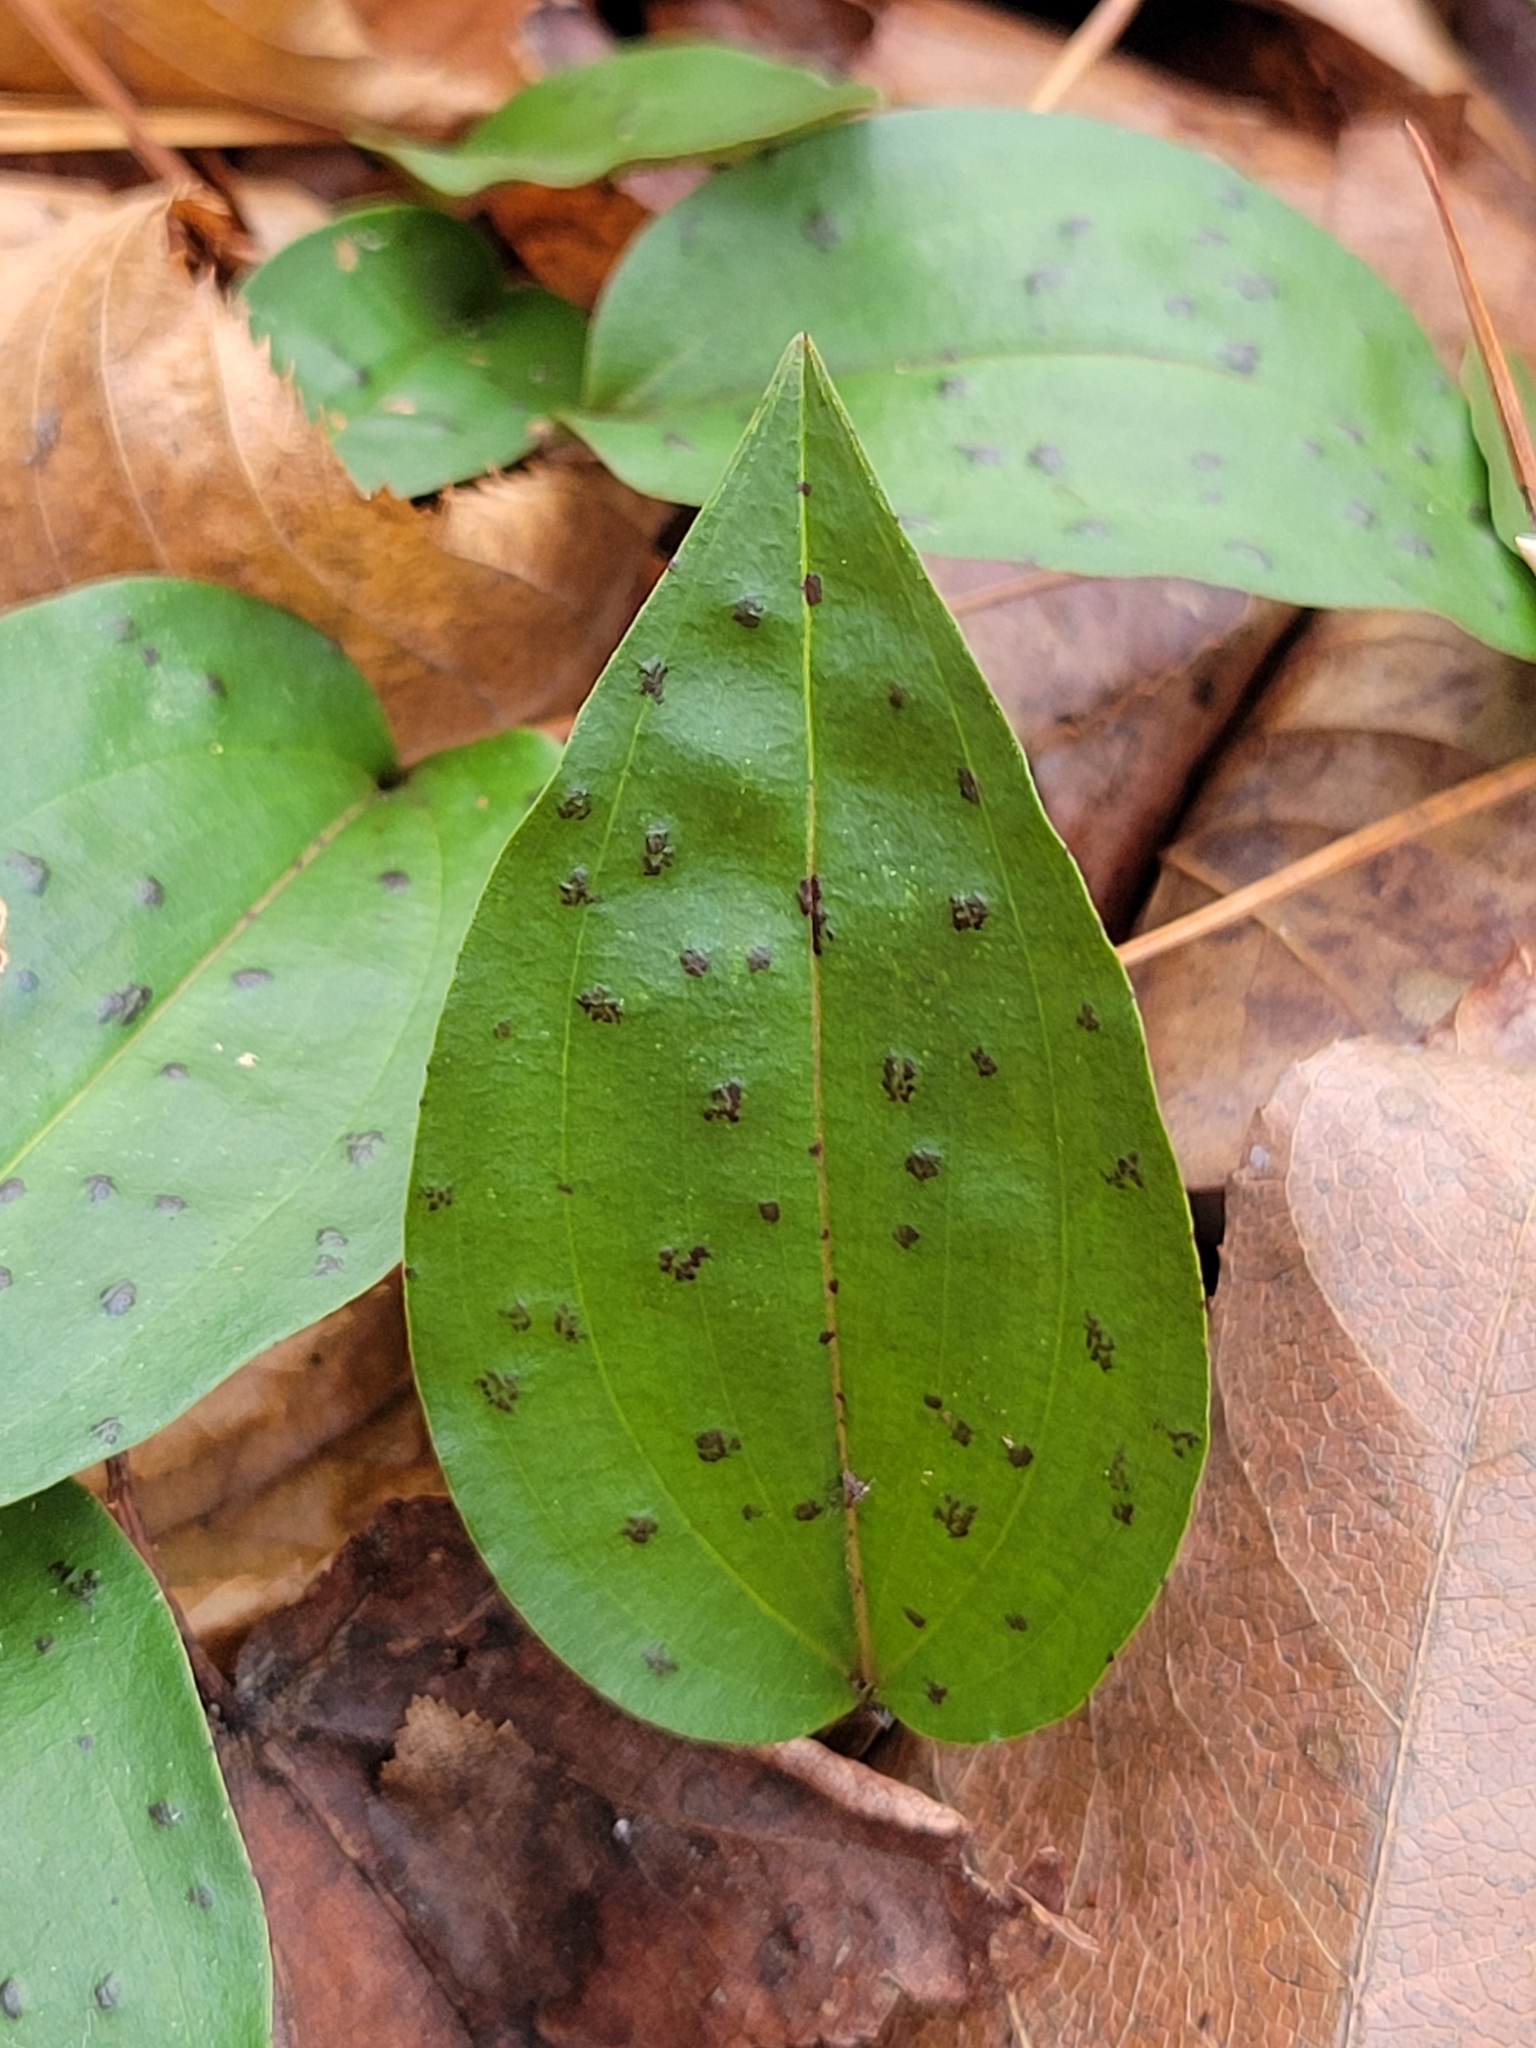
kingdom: Plantae
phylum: Tracheophyta
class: Liliopsida
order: Asparagales
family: Orchidaceae
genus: Tipularia
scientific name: Tipularia discolor
